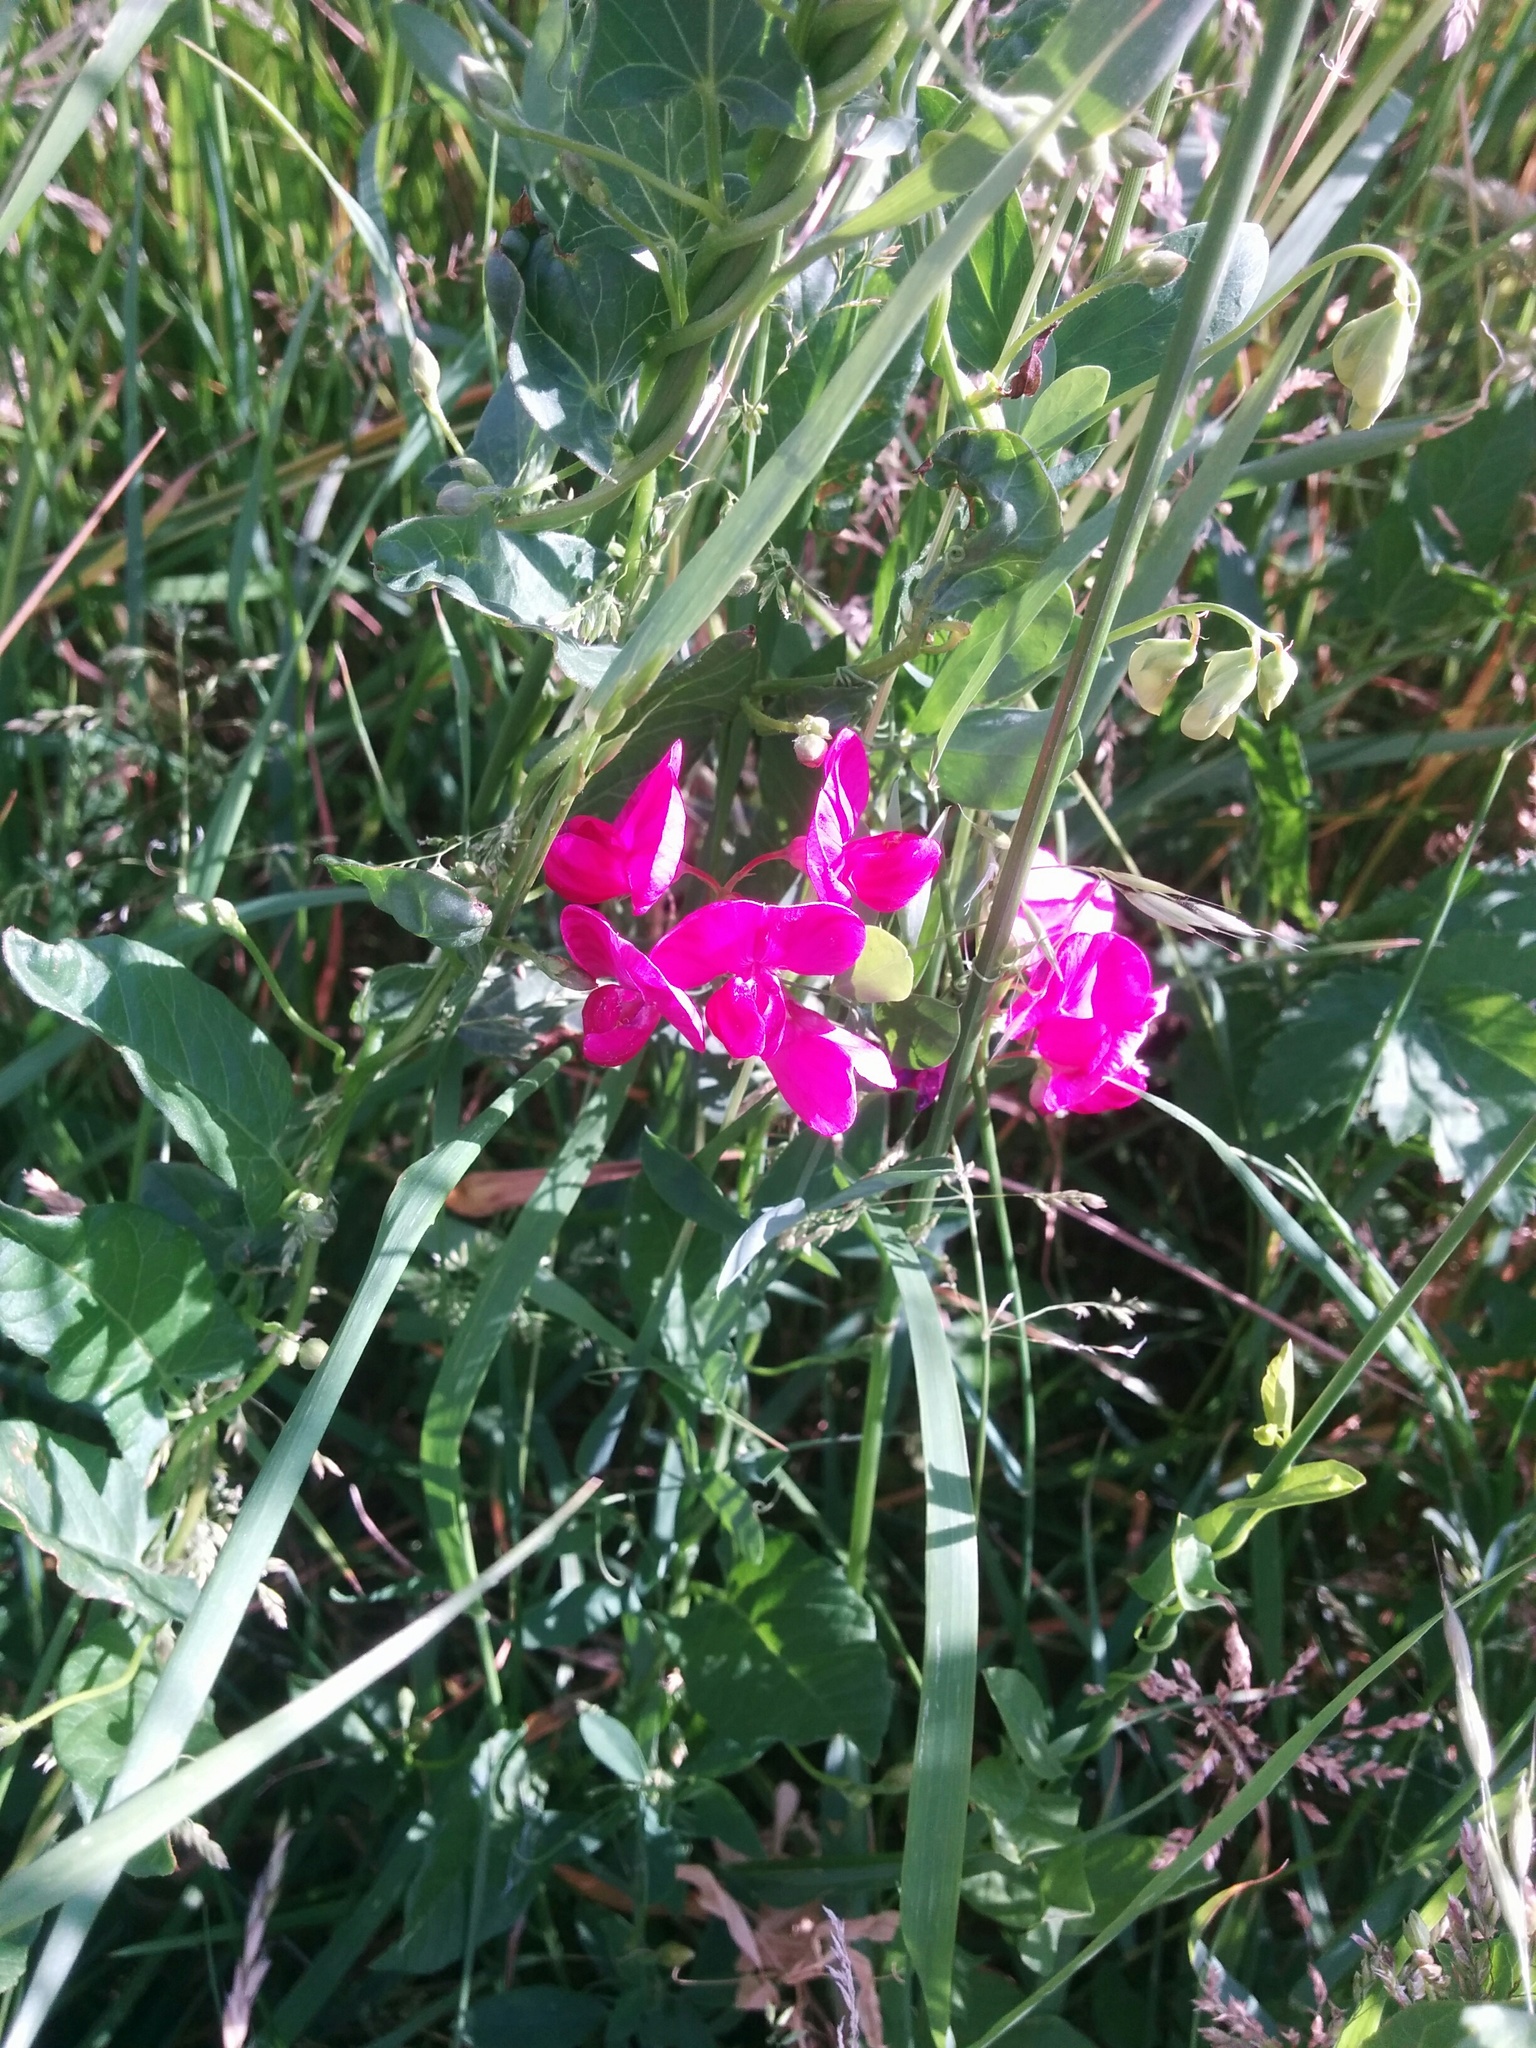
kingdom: Plantae
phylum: Tracheophyta
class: Magnoliopsida
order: Fabales
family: Fabaceae
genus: Lathyrus
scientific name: Lathyrus tuberosus
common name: Tuberous pea
